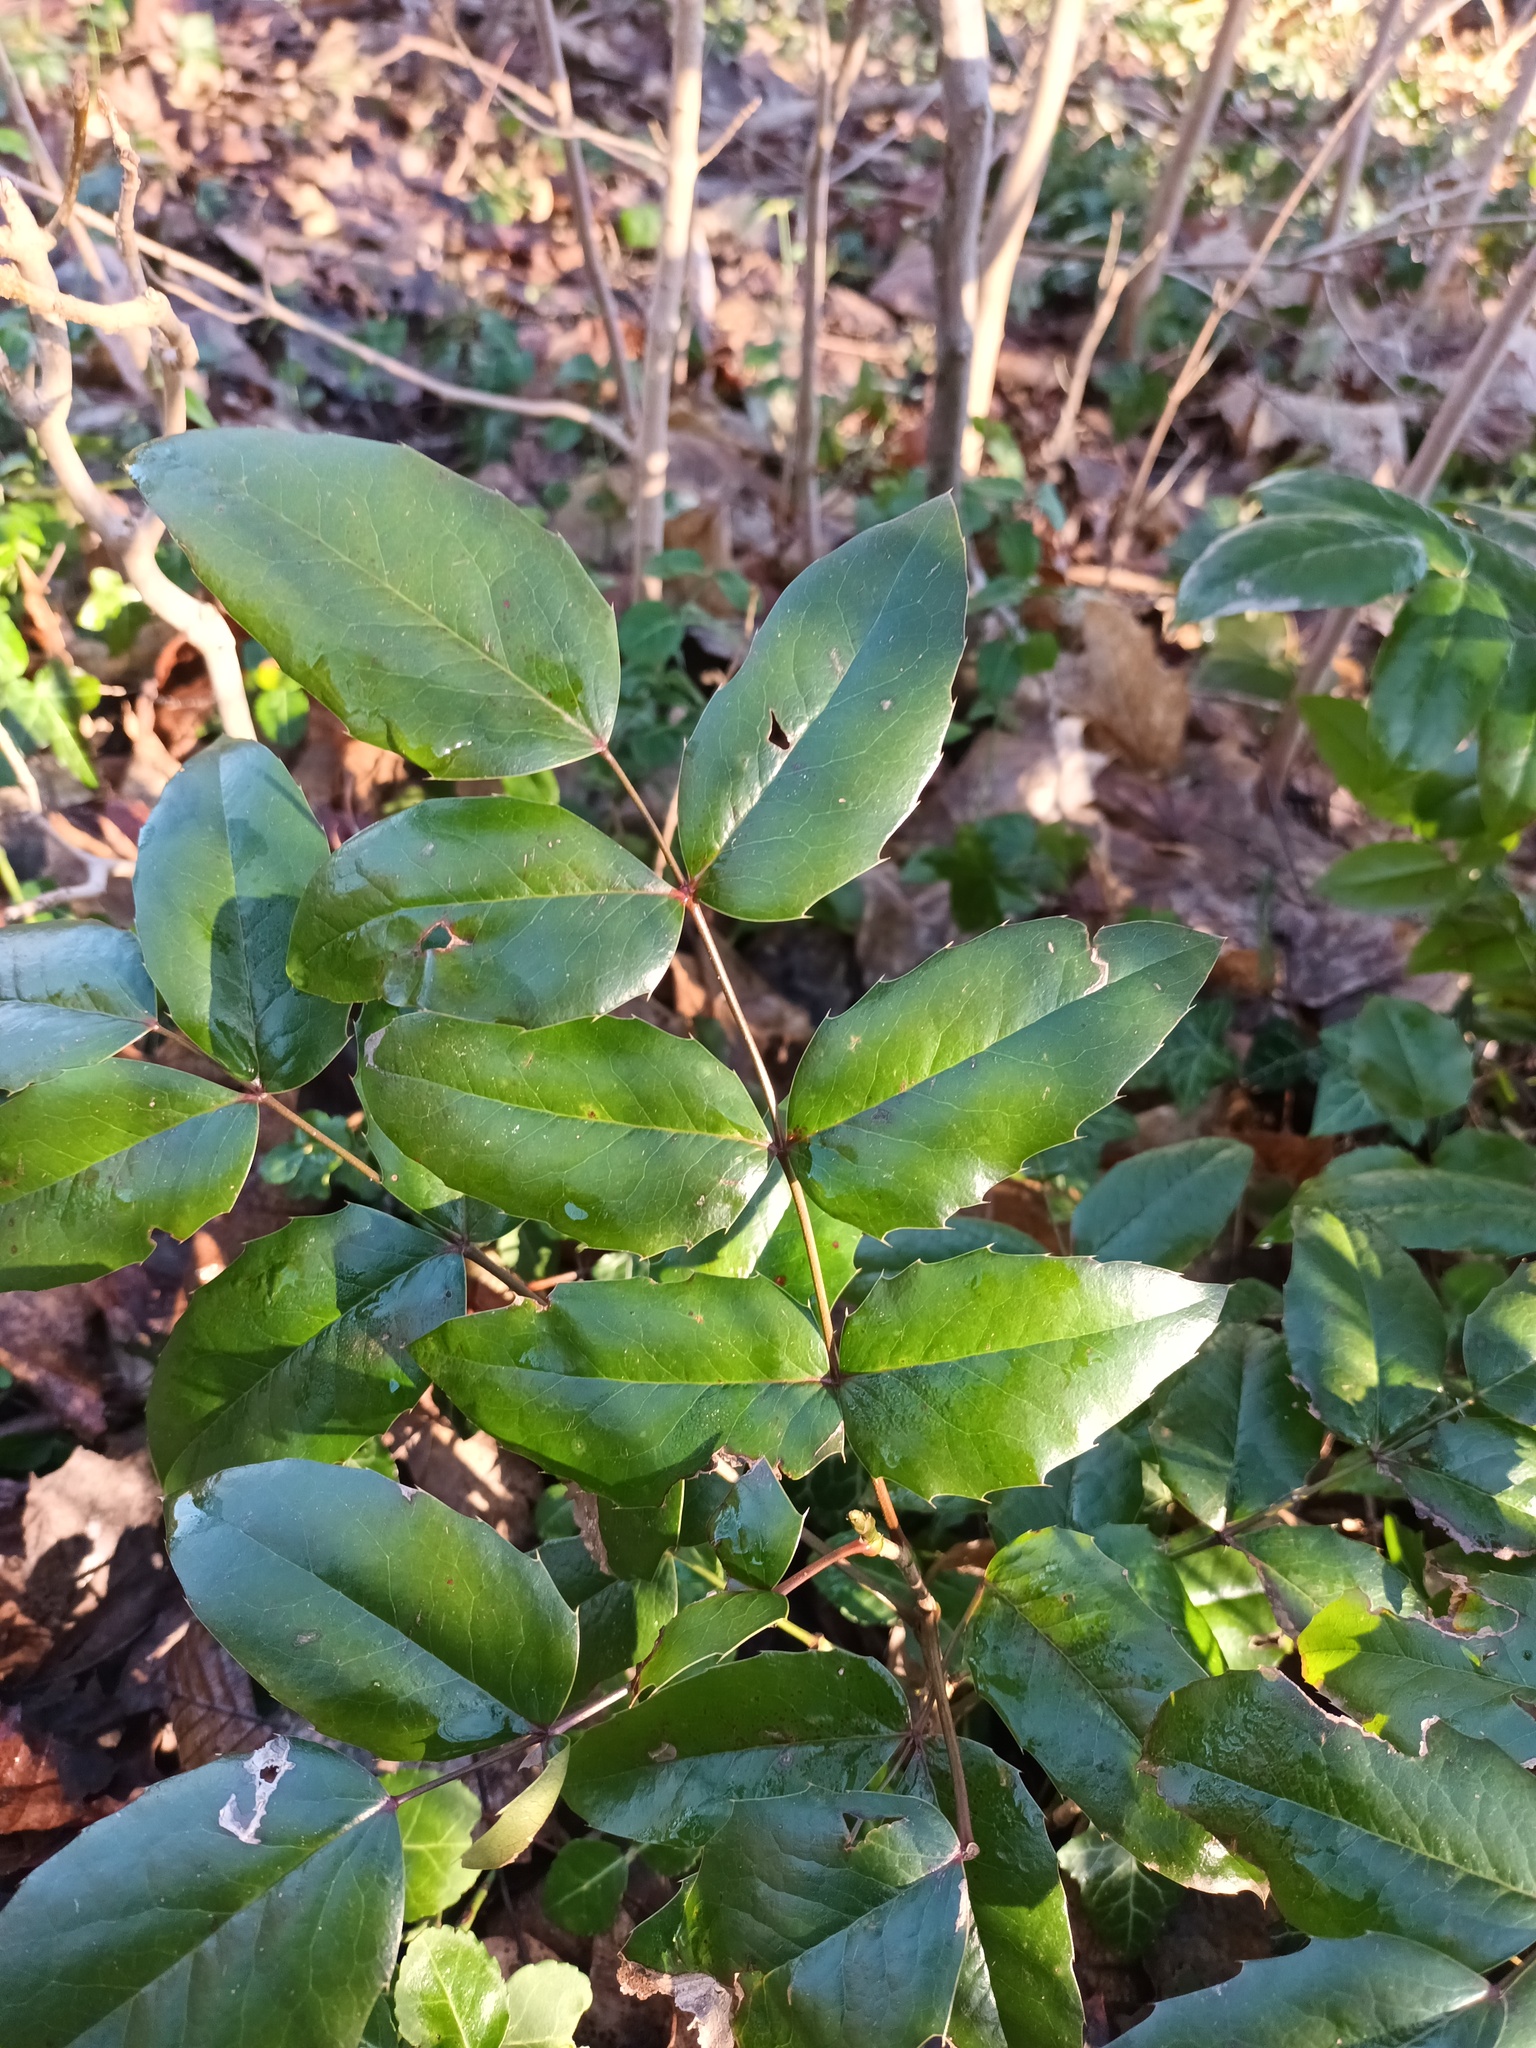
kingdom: Plantae
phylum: Tracheophyta
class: Magnoliopsida
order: Ranunculales
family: Berberidaceae
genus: Mahonia
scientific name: Mahonia aquifolium
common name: Oregon-grape
